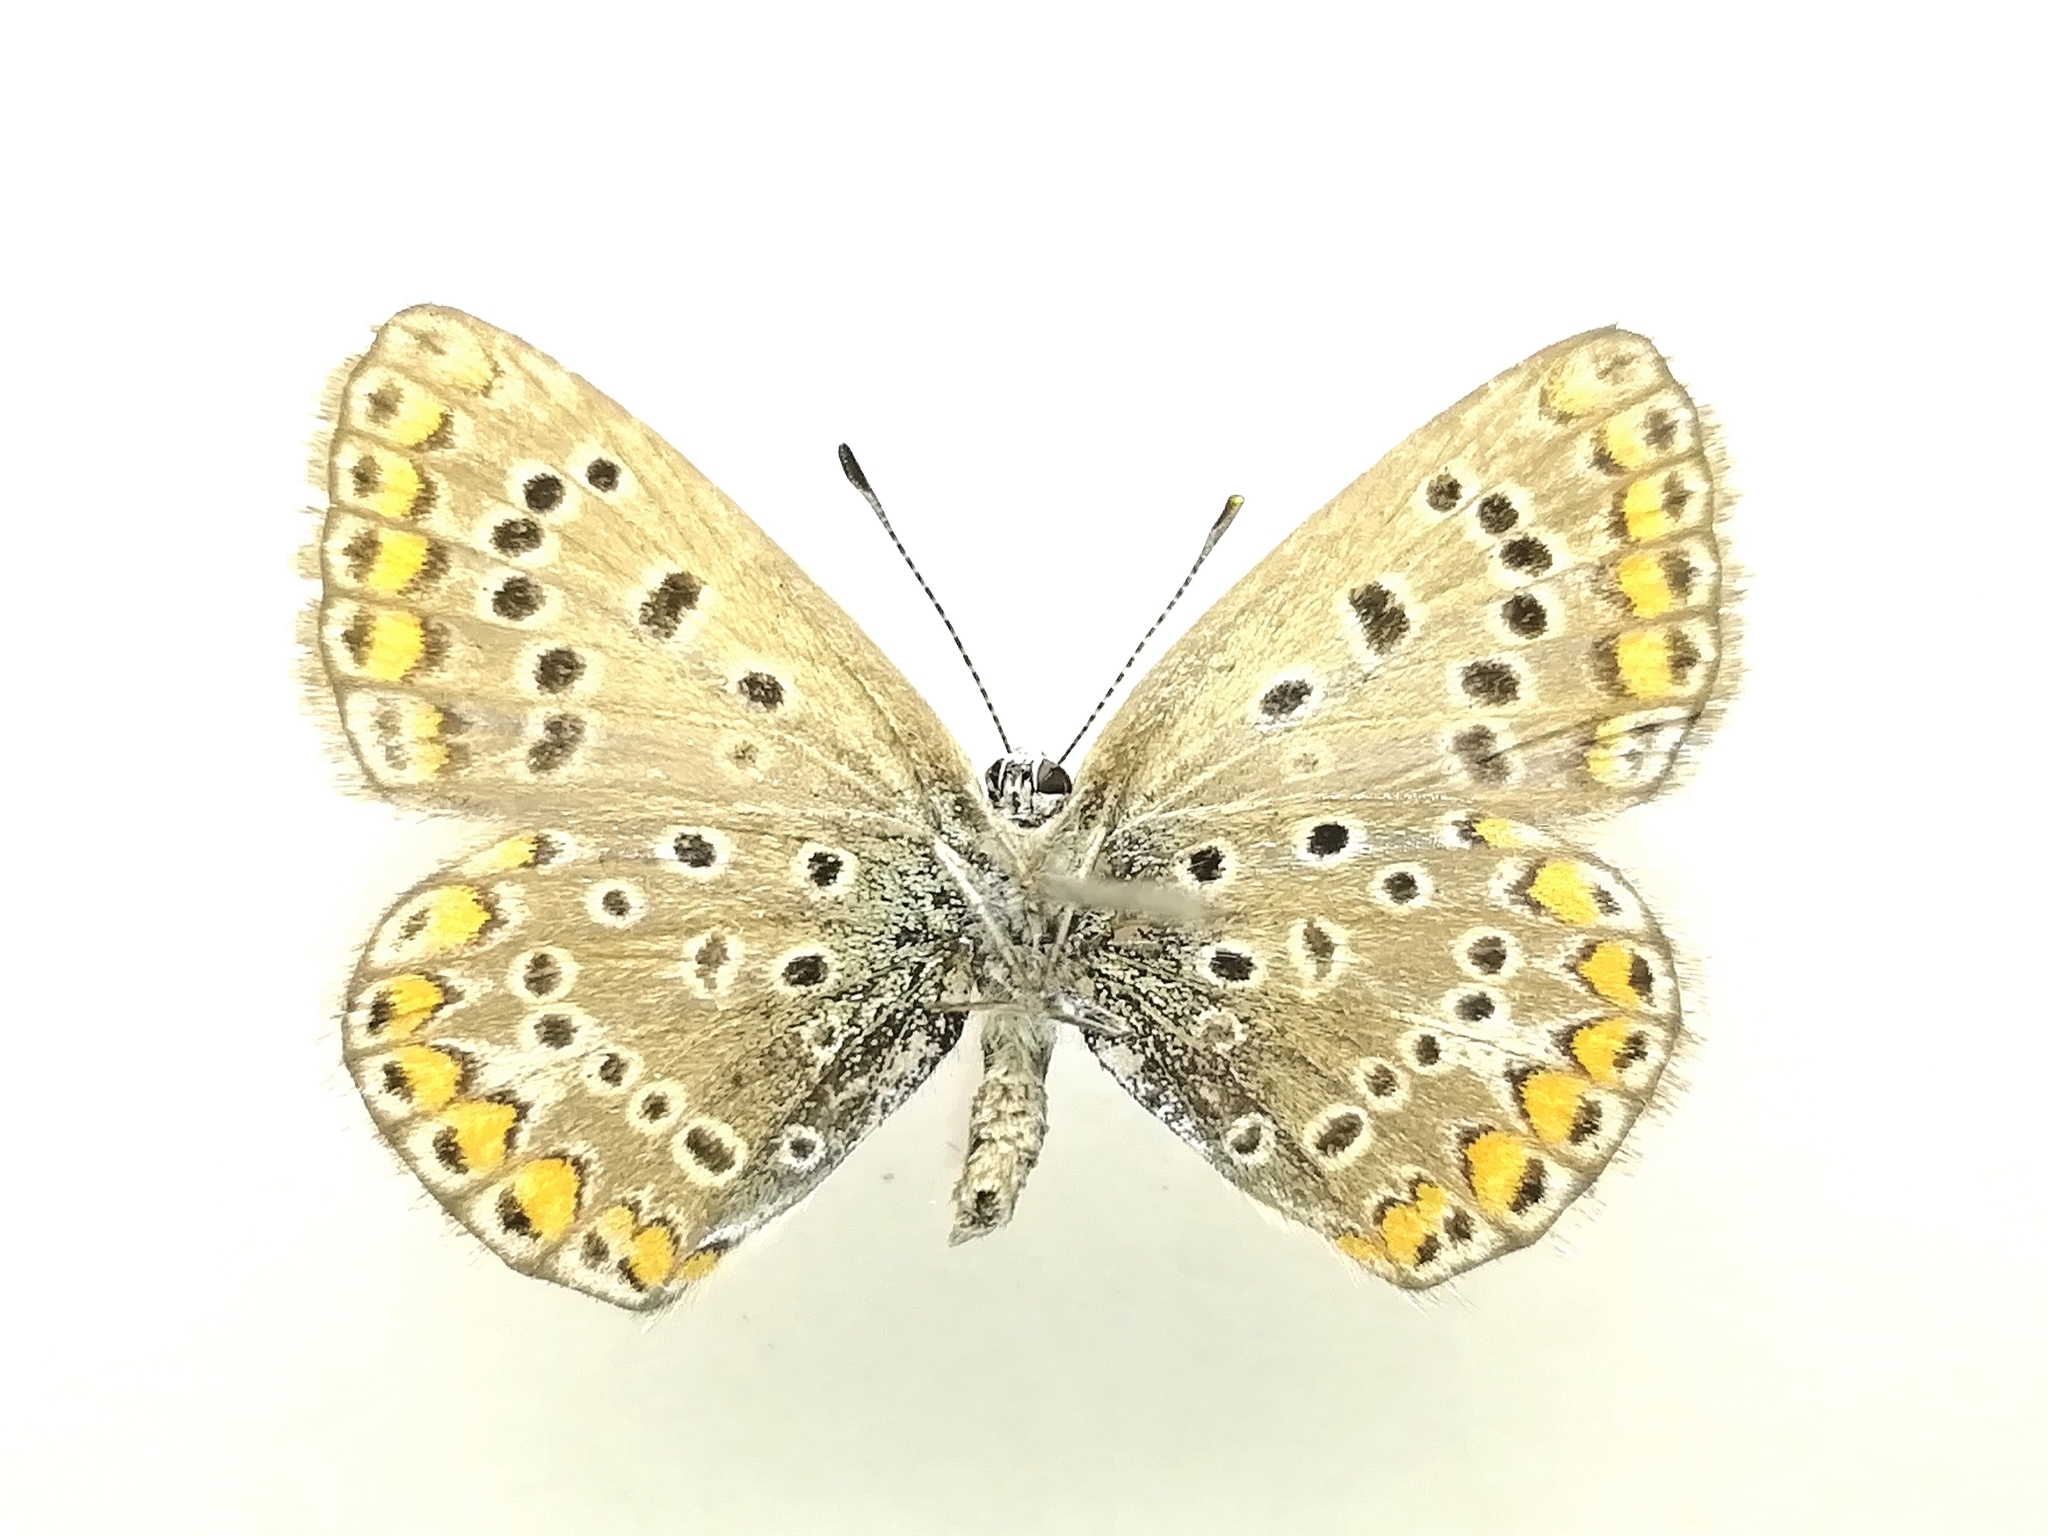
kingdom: Animalia
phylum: Arthropoda
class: Insecta
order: Lepidoptera
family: Lycaenidae
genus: Polyommatus
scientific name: Polyommatus icarus
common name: Common blue
